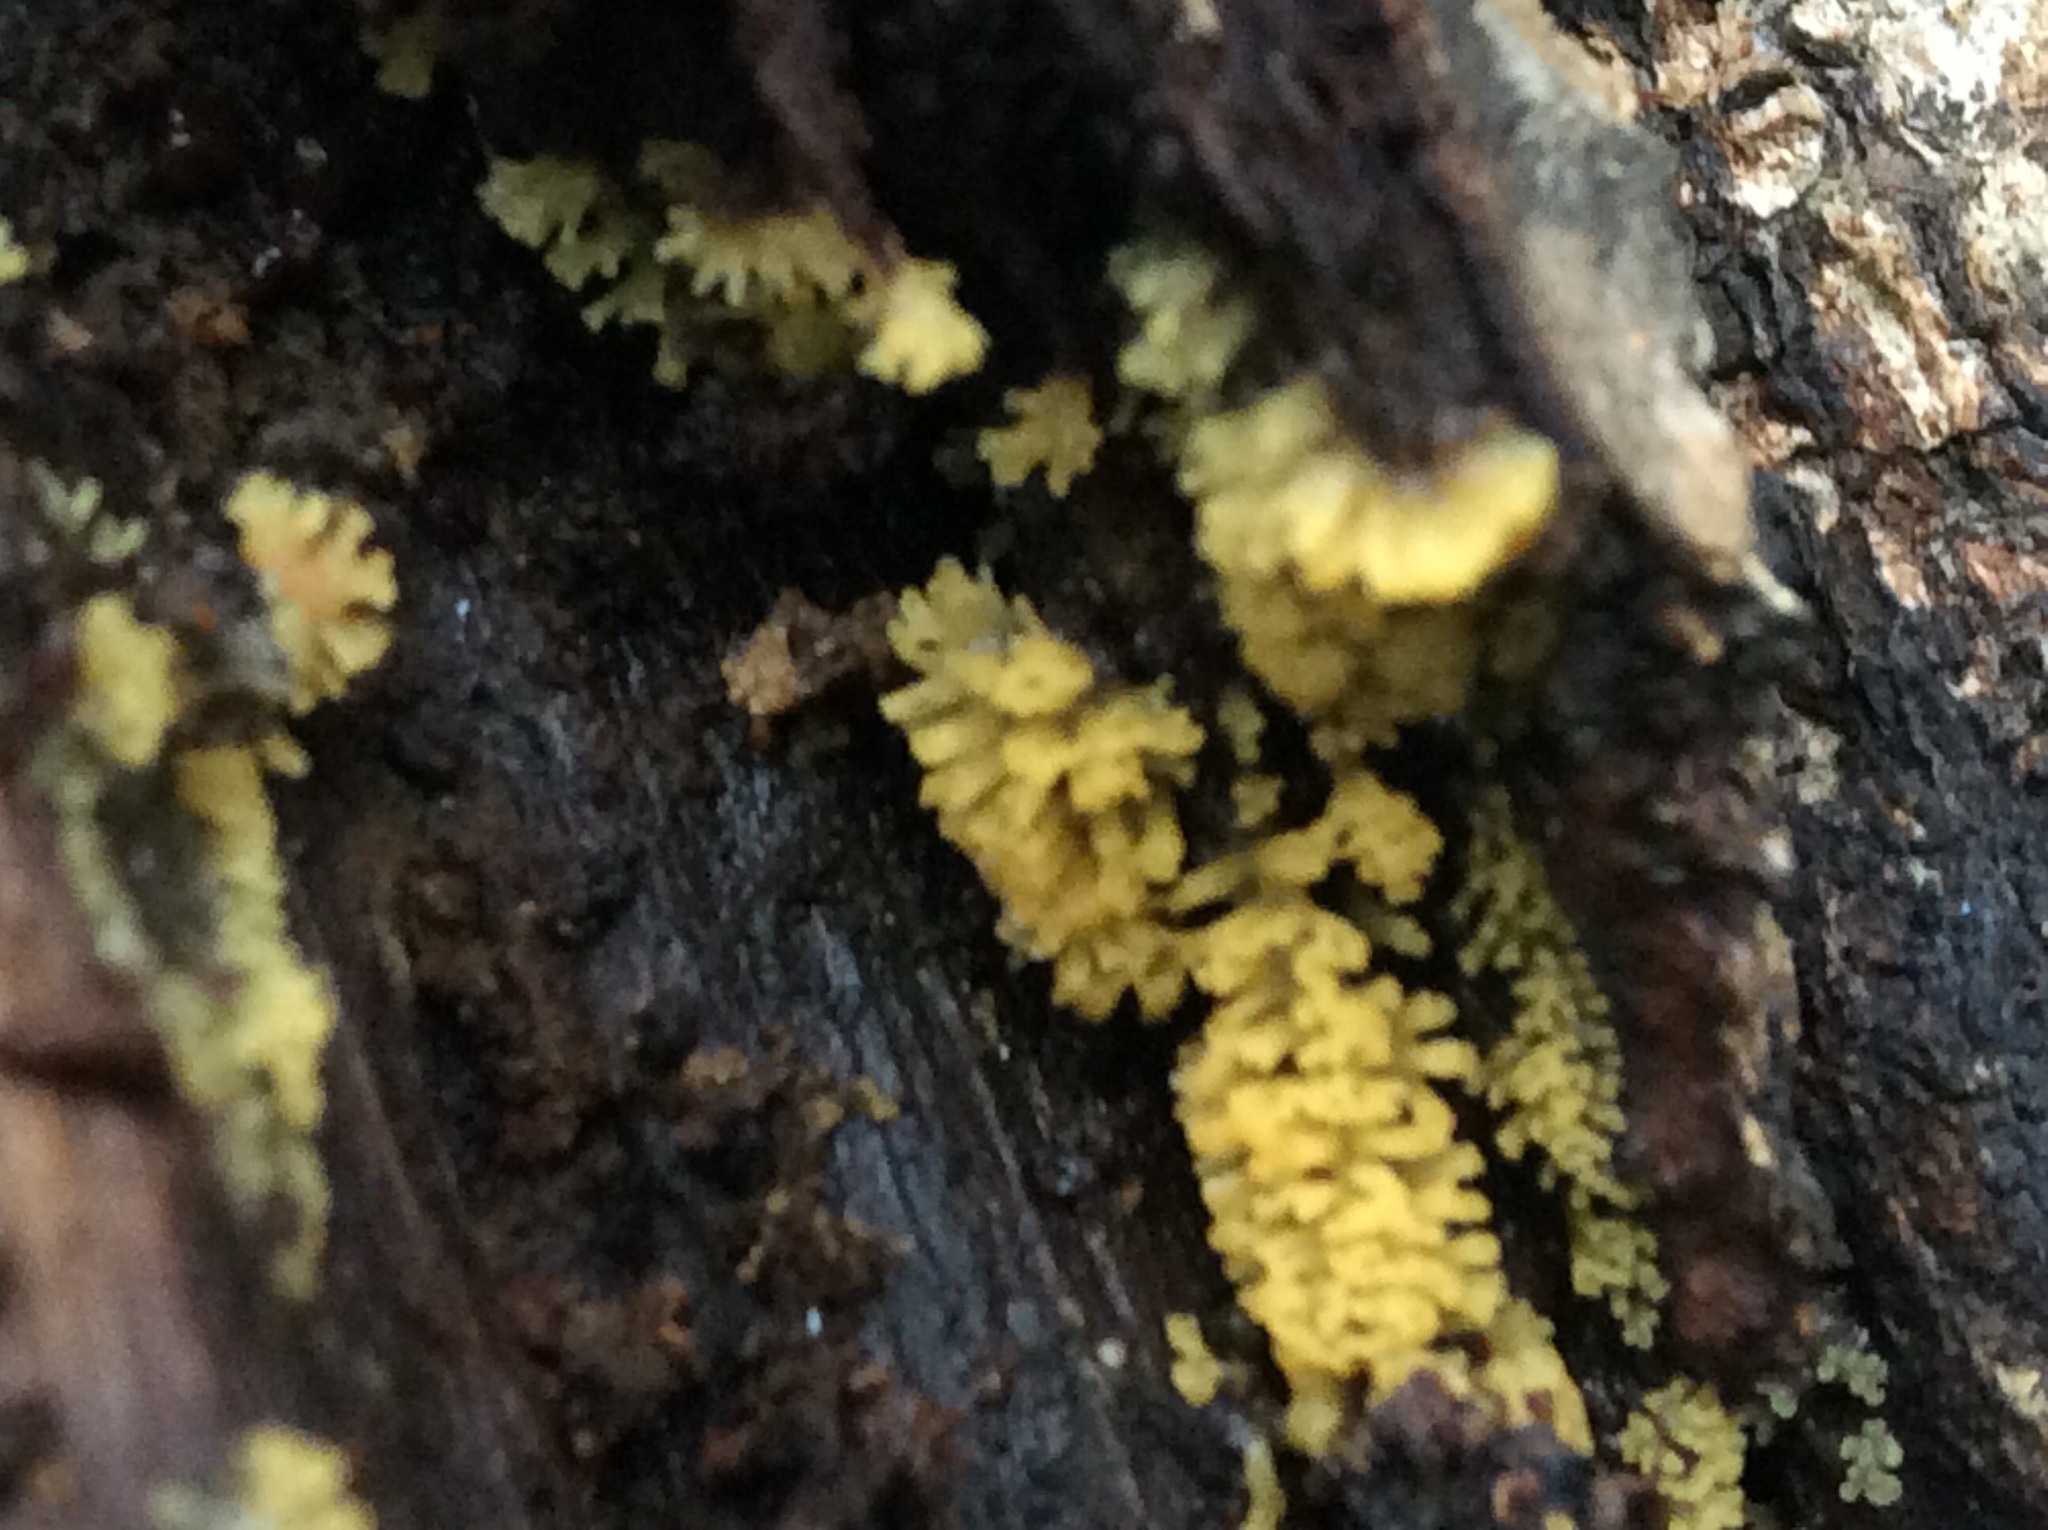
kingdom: Protozoa
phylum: Mycetozoa
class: Protosteliomycetes
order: Ceratiomyxales
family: Ceratiomyxaceae
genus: Ceratiomyxa
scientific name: Ceratiomyxa fruticulosa
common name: Honeycomb coral slime mold
